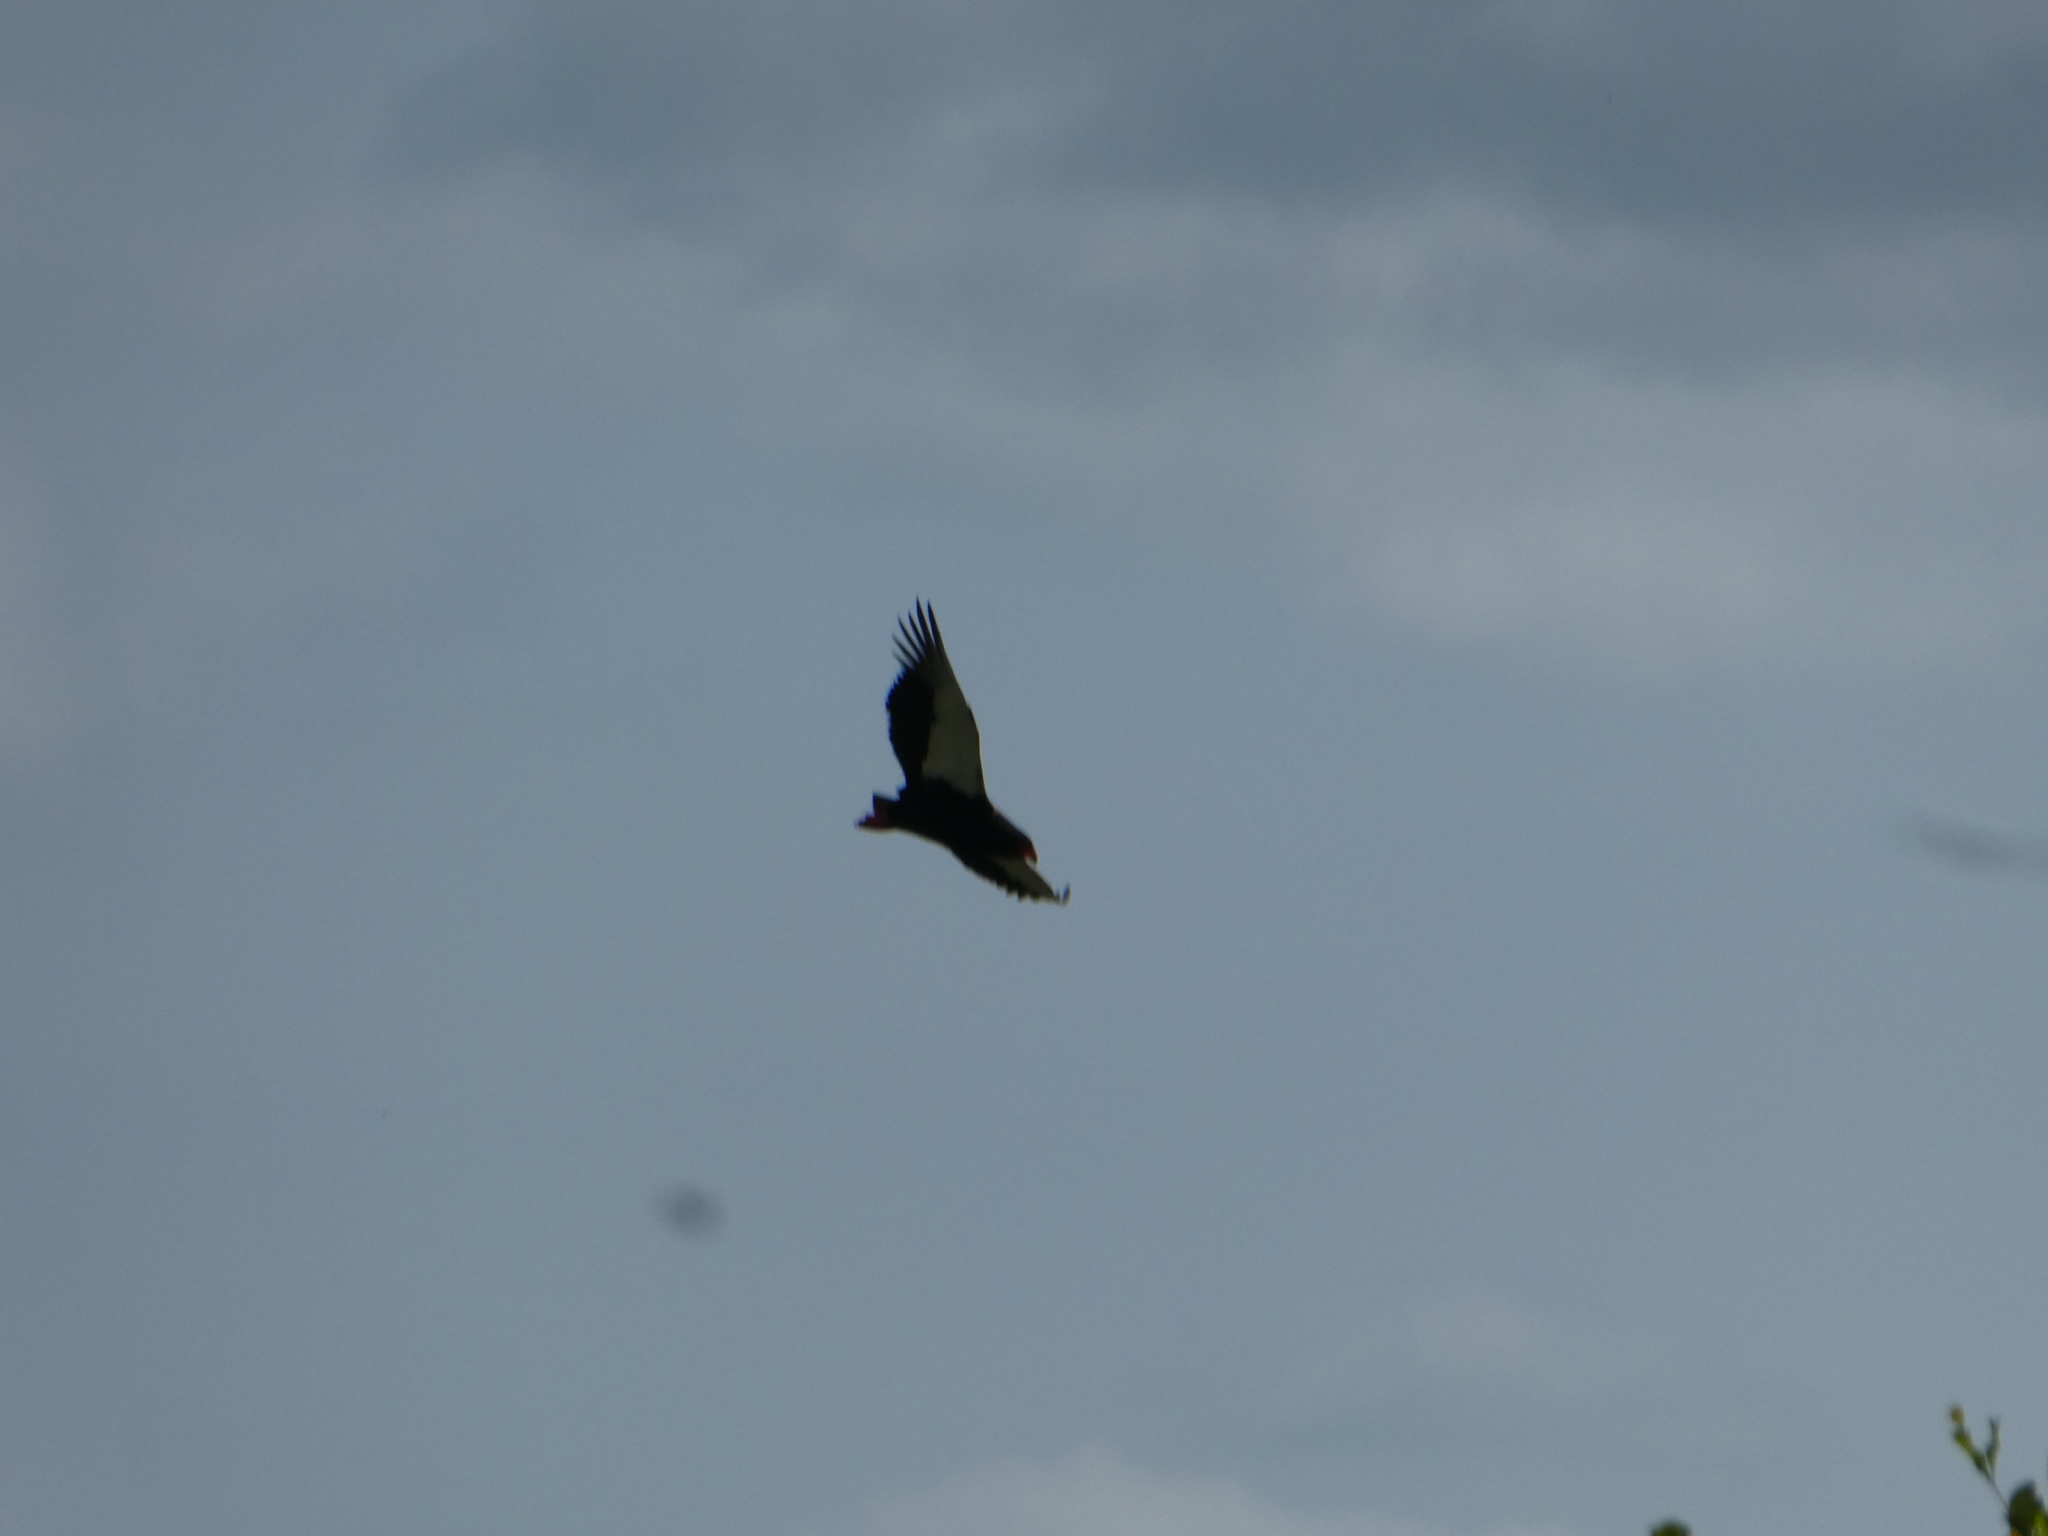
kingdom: Animalia
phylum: Chordata
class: Aves
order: Accipitriformes
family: Accipitridae
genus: Terathopius
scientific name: Terathopius ecaudatus
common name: Bateleur
